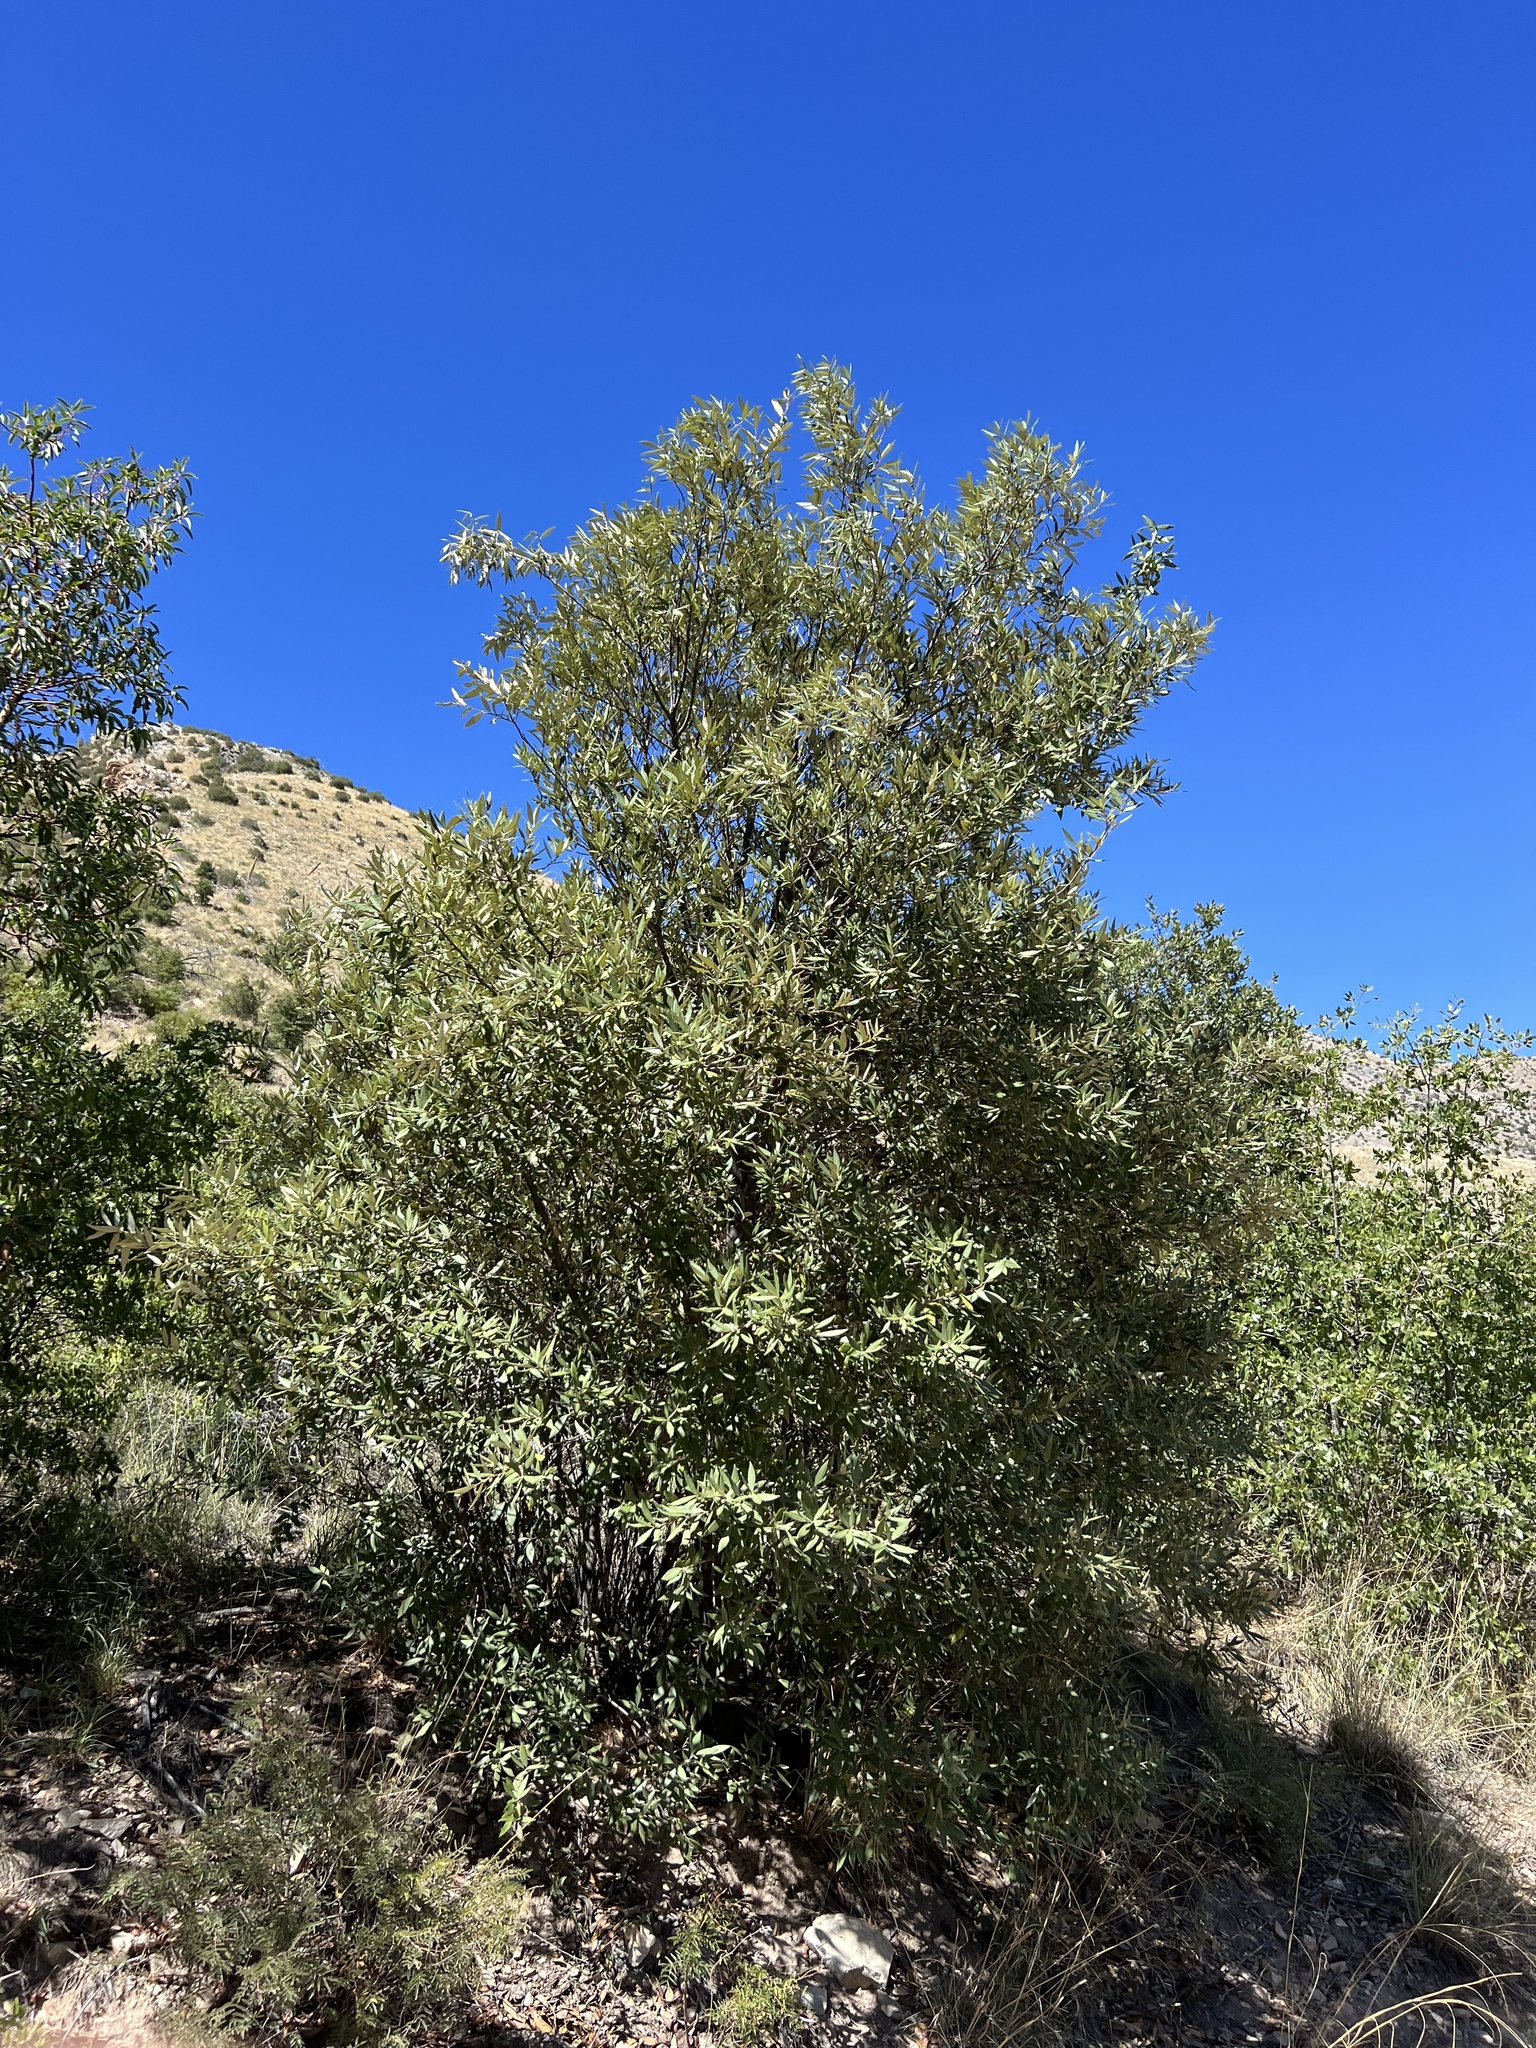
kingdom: Plantae
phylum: Tracheophyta
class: Magnoliopsida
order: Fagales
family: Fagaceae
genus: Quercus
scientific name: Quercus hypoleucoides
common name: Silverleaf oak
